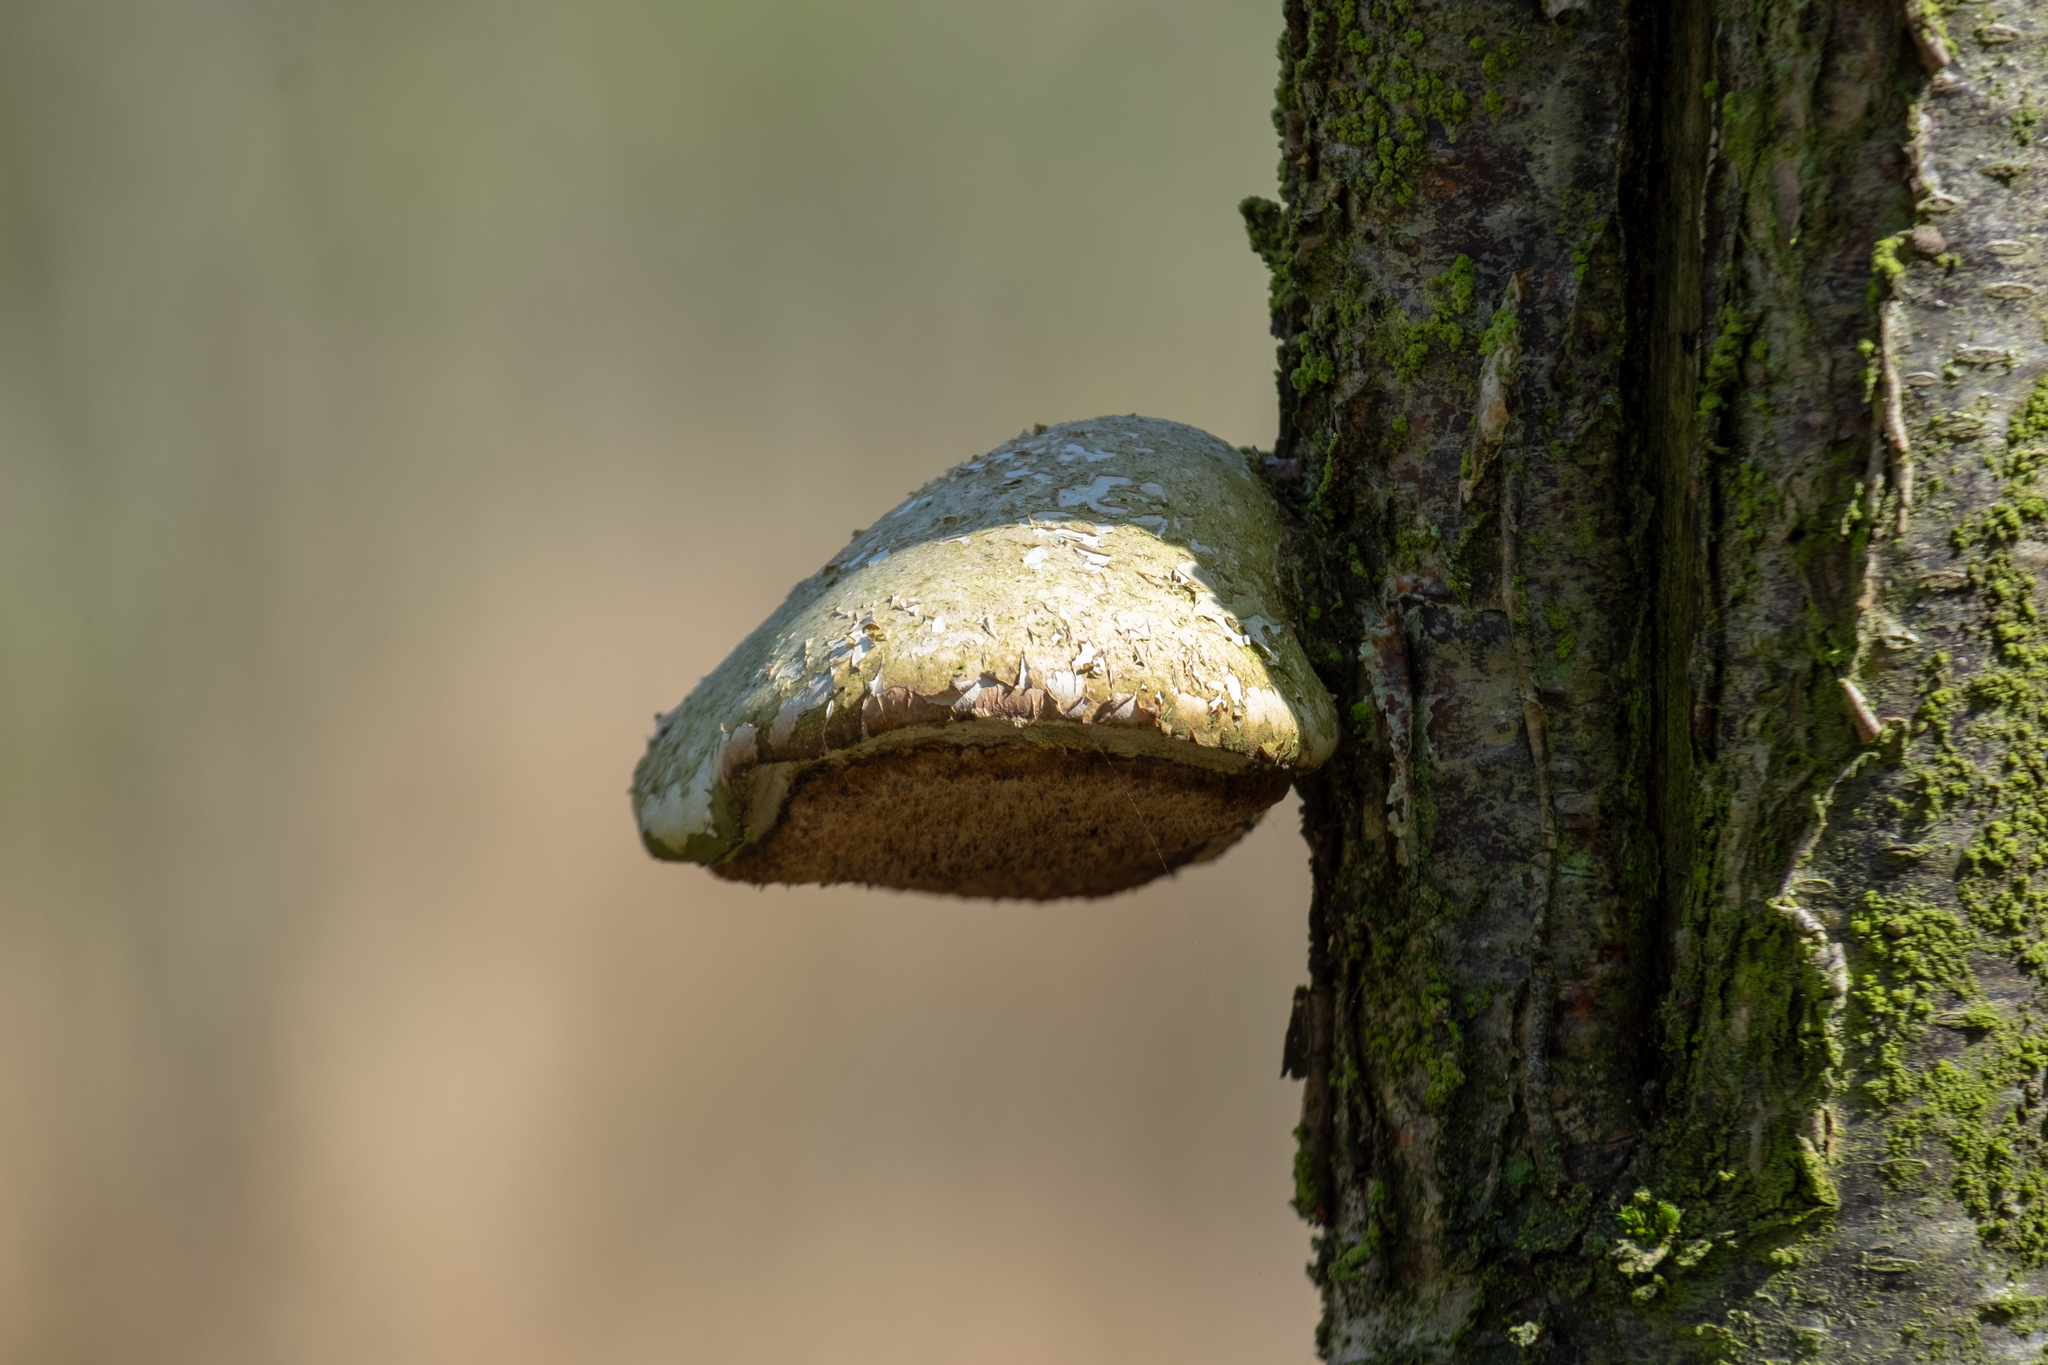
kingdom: Fungi
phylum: Basidiomycota
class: Agaricomycetes
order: Polyporales
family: Fomitopsidaceae
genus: Fomitopsis
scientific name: Fomitopsis betulina
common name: Birch polypore
